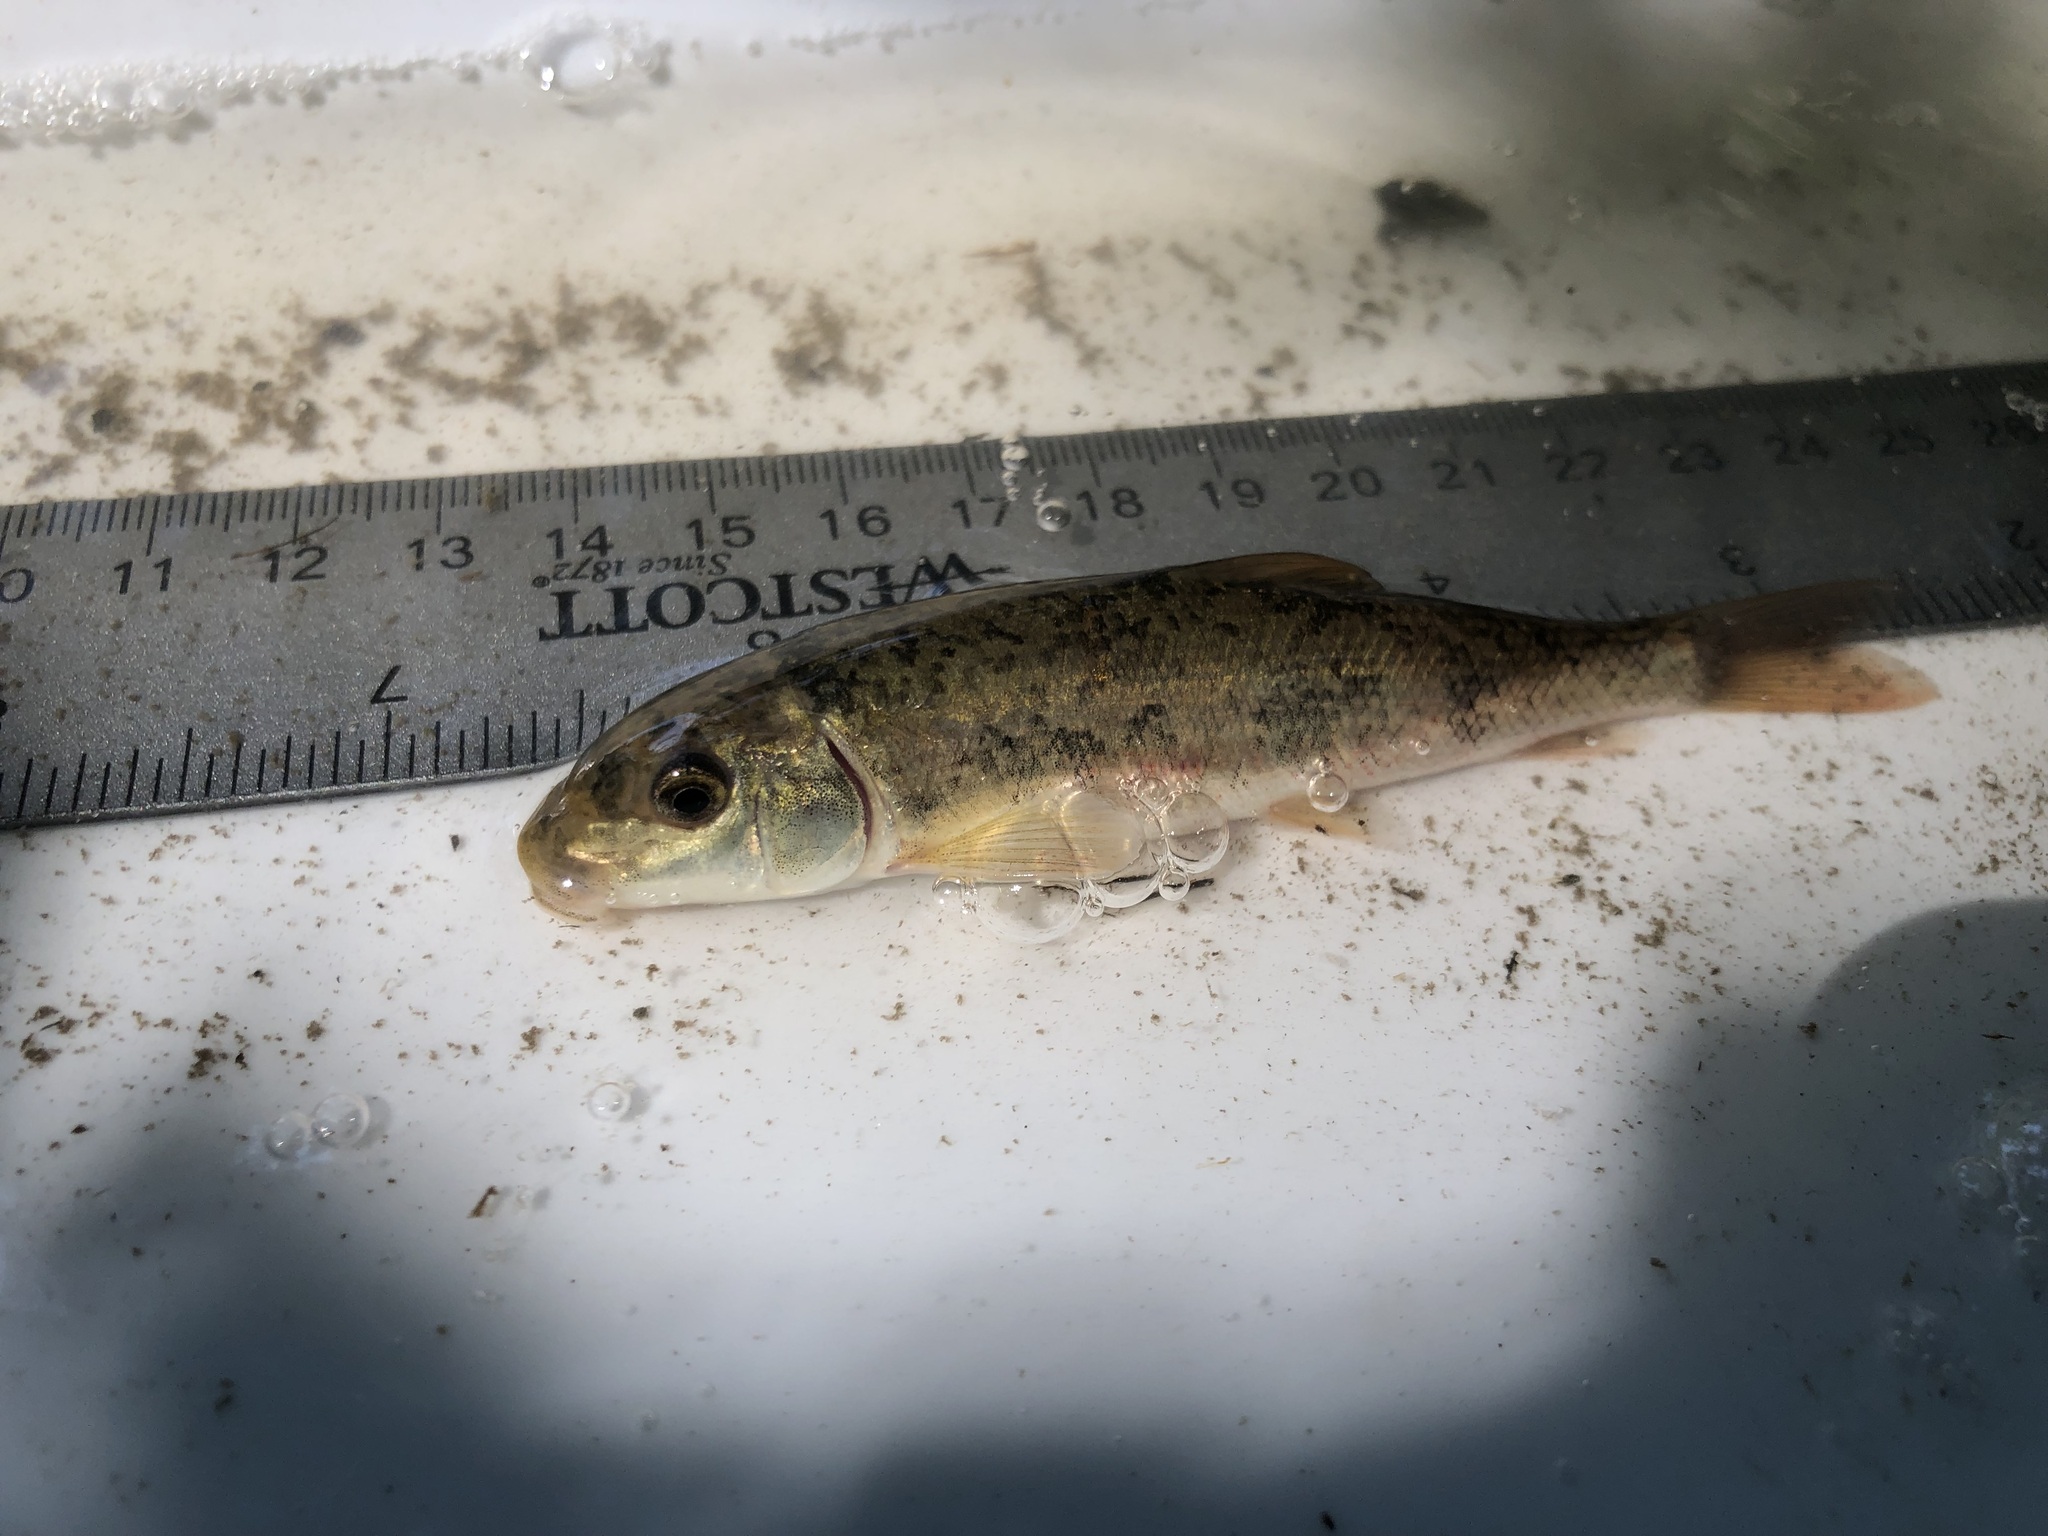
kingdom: Animalia
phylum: Chordata
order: Cypriniformes
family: Catostomidae
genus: Catostomus
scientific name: Catostomus commersonii
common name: White sucker
